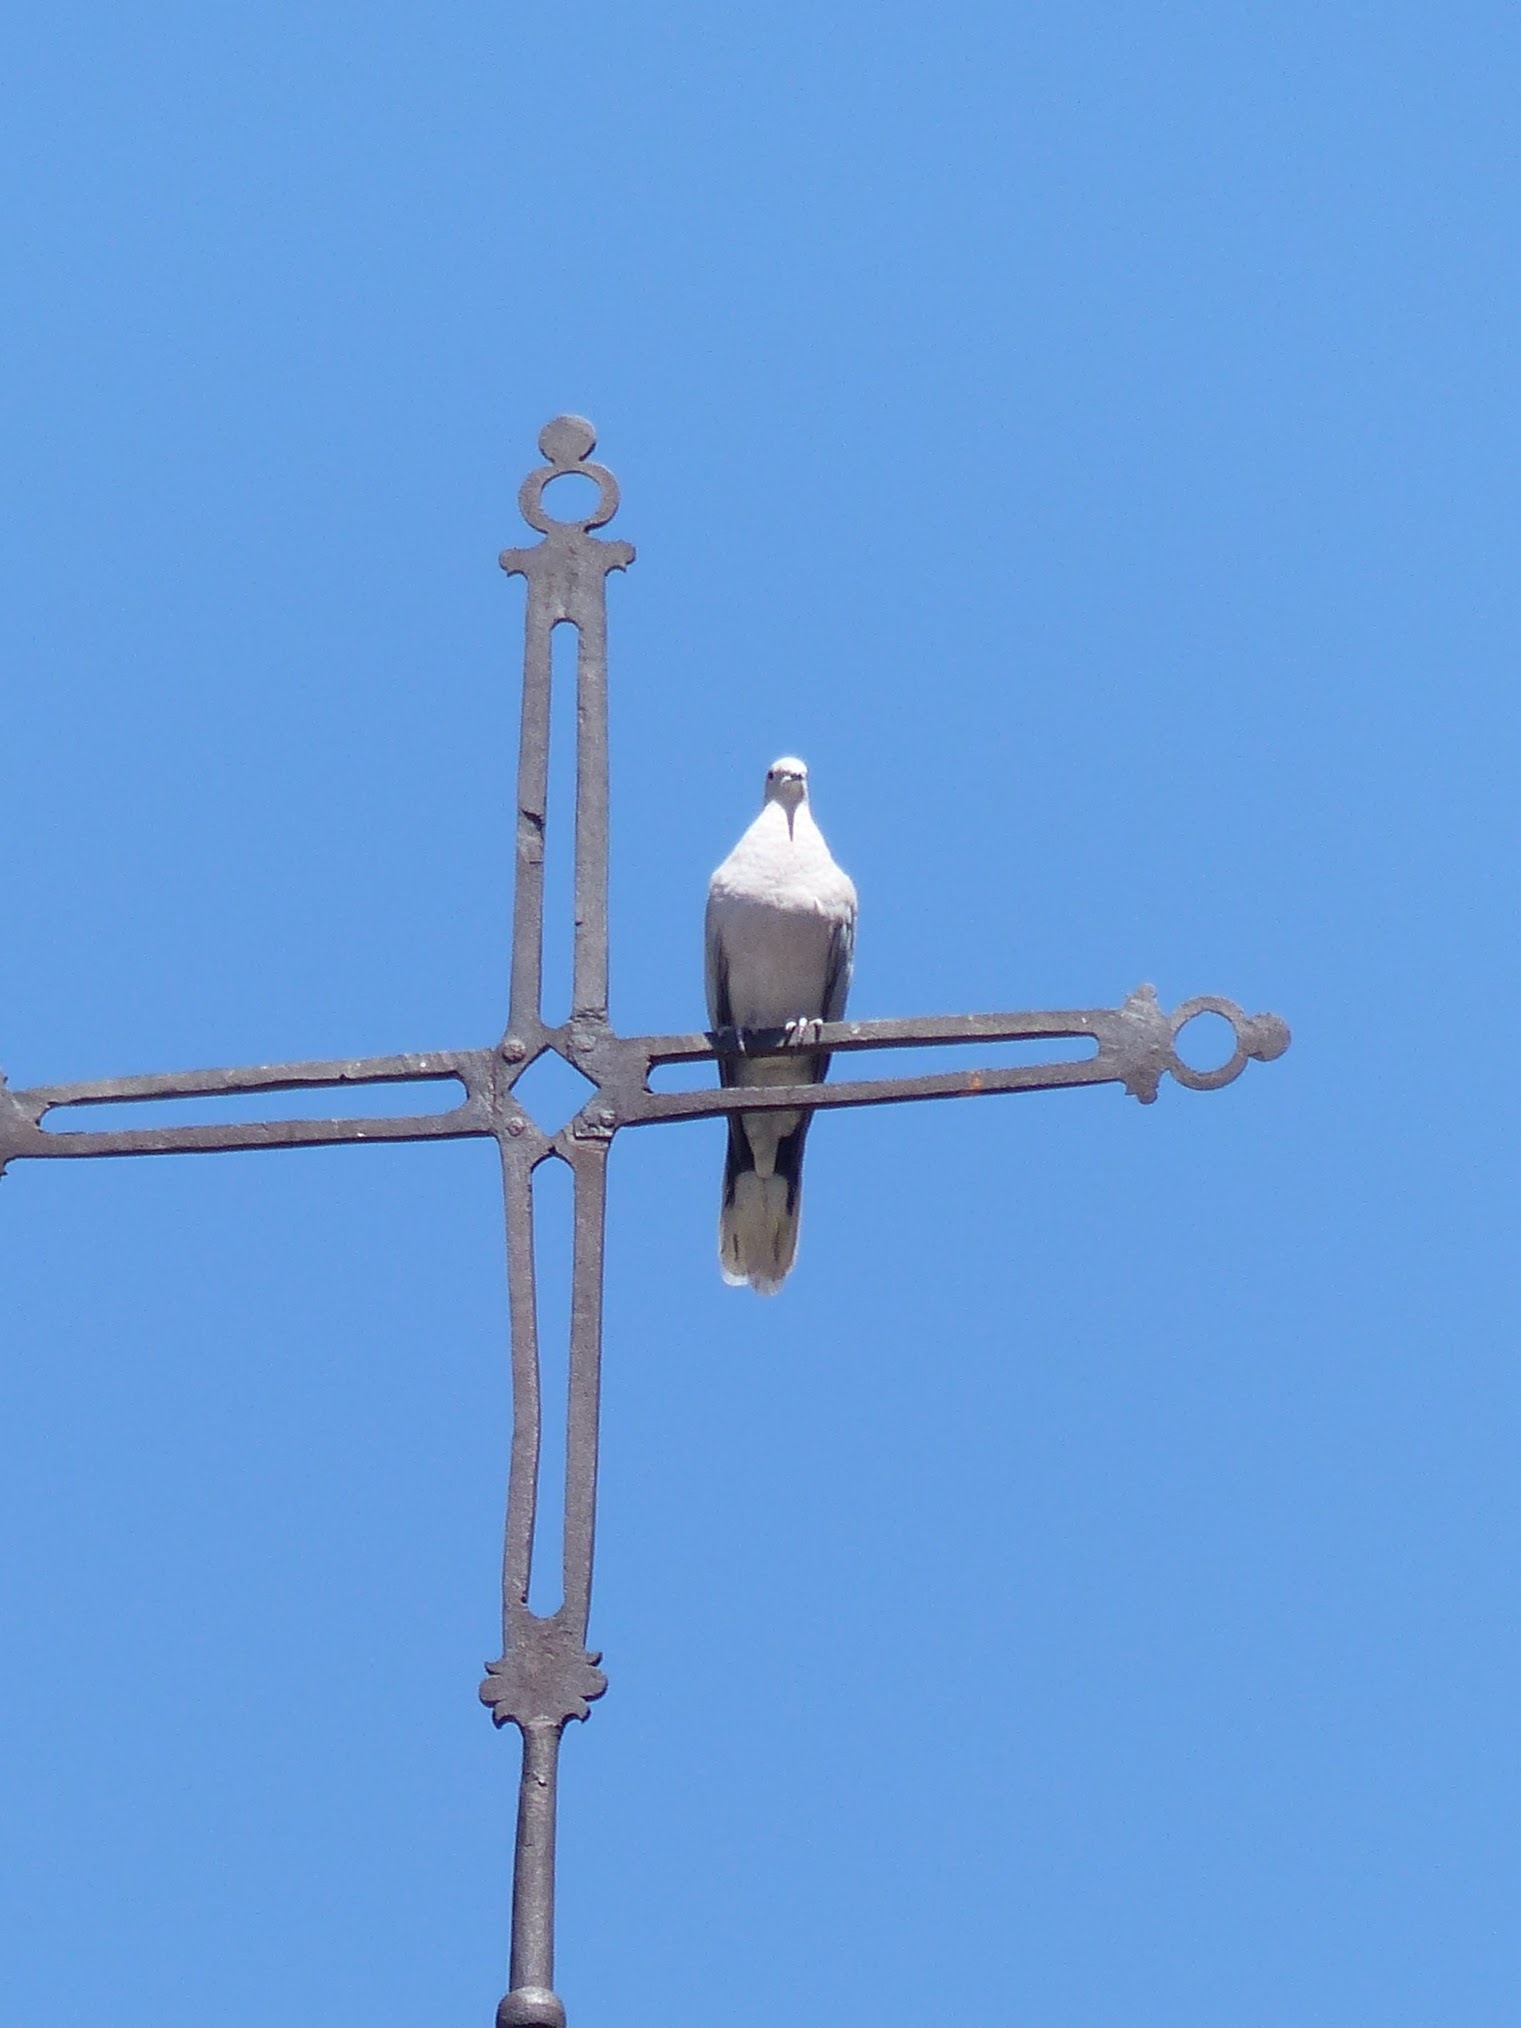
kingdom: Animalia
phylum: Chordata
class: Aves
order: Columbiformes
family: Columbidae
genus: Streptopelia
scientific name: Streptopelia decaocto
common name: Eurasian collared dove
